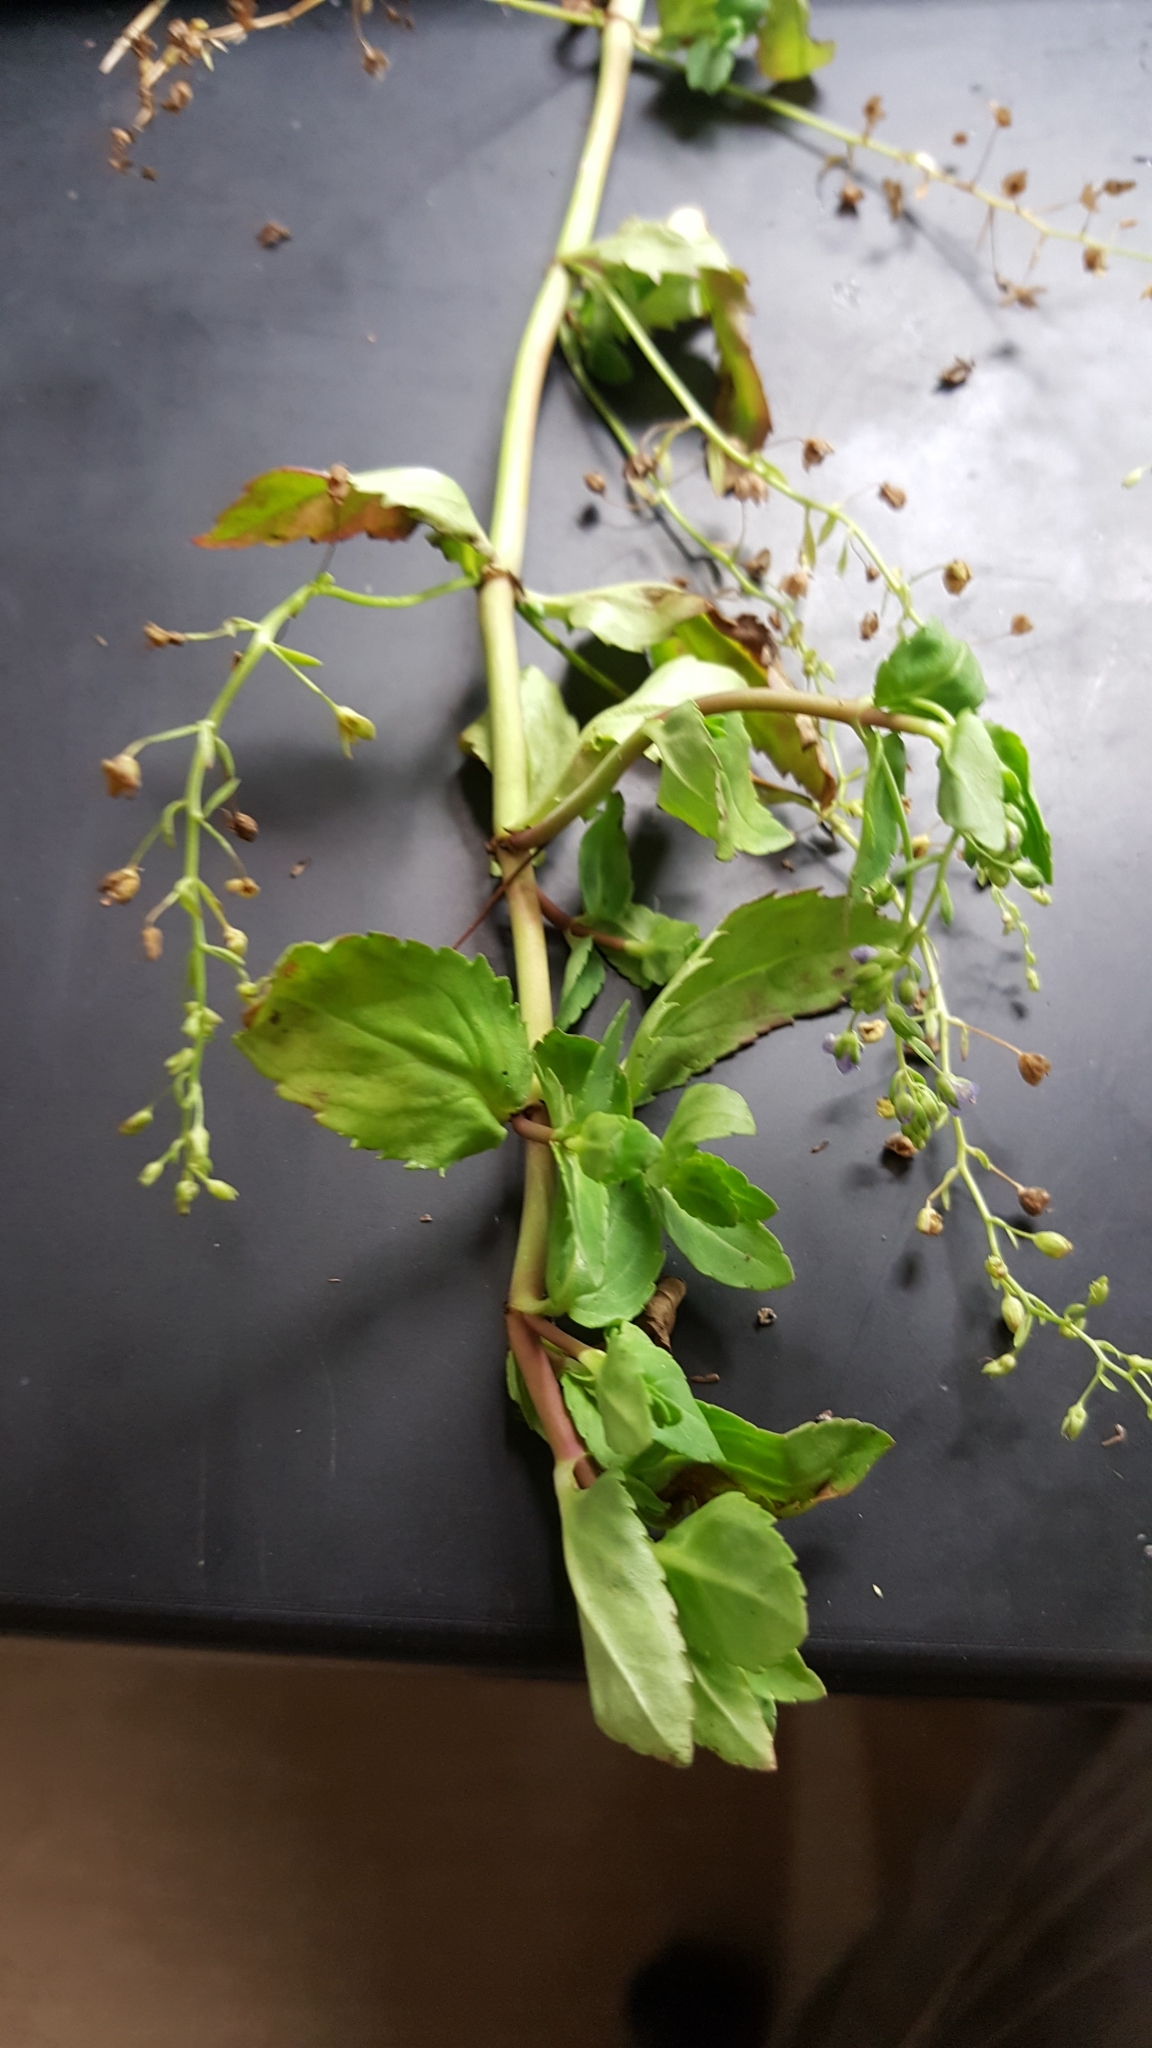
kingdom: Plantae
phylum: Tracheophyta
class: Magnoliopsida
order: Lamiales
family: Plantaginaceae
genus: Veronica
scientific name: Veronica americana
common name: American brooklime
